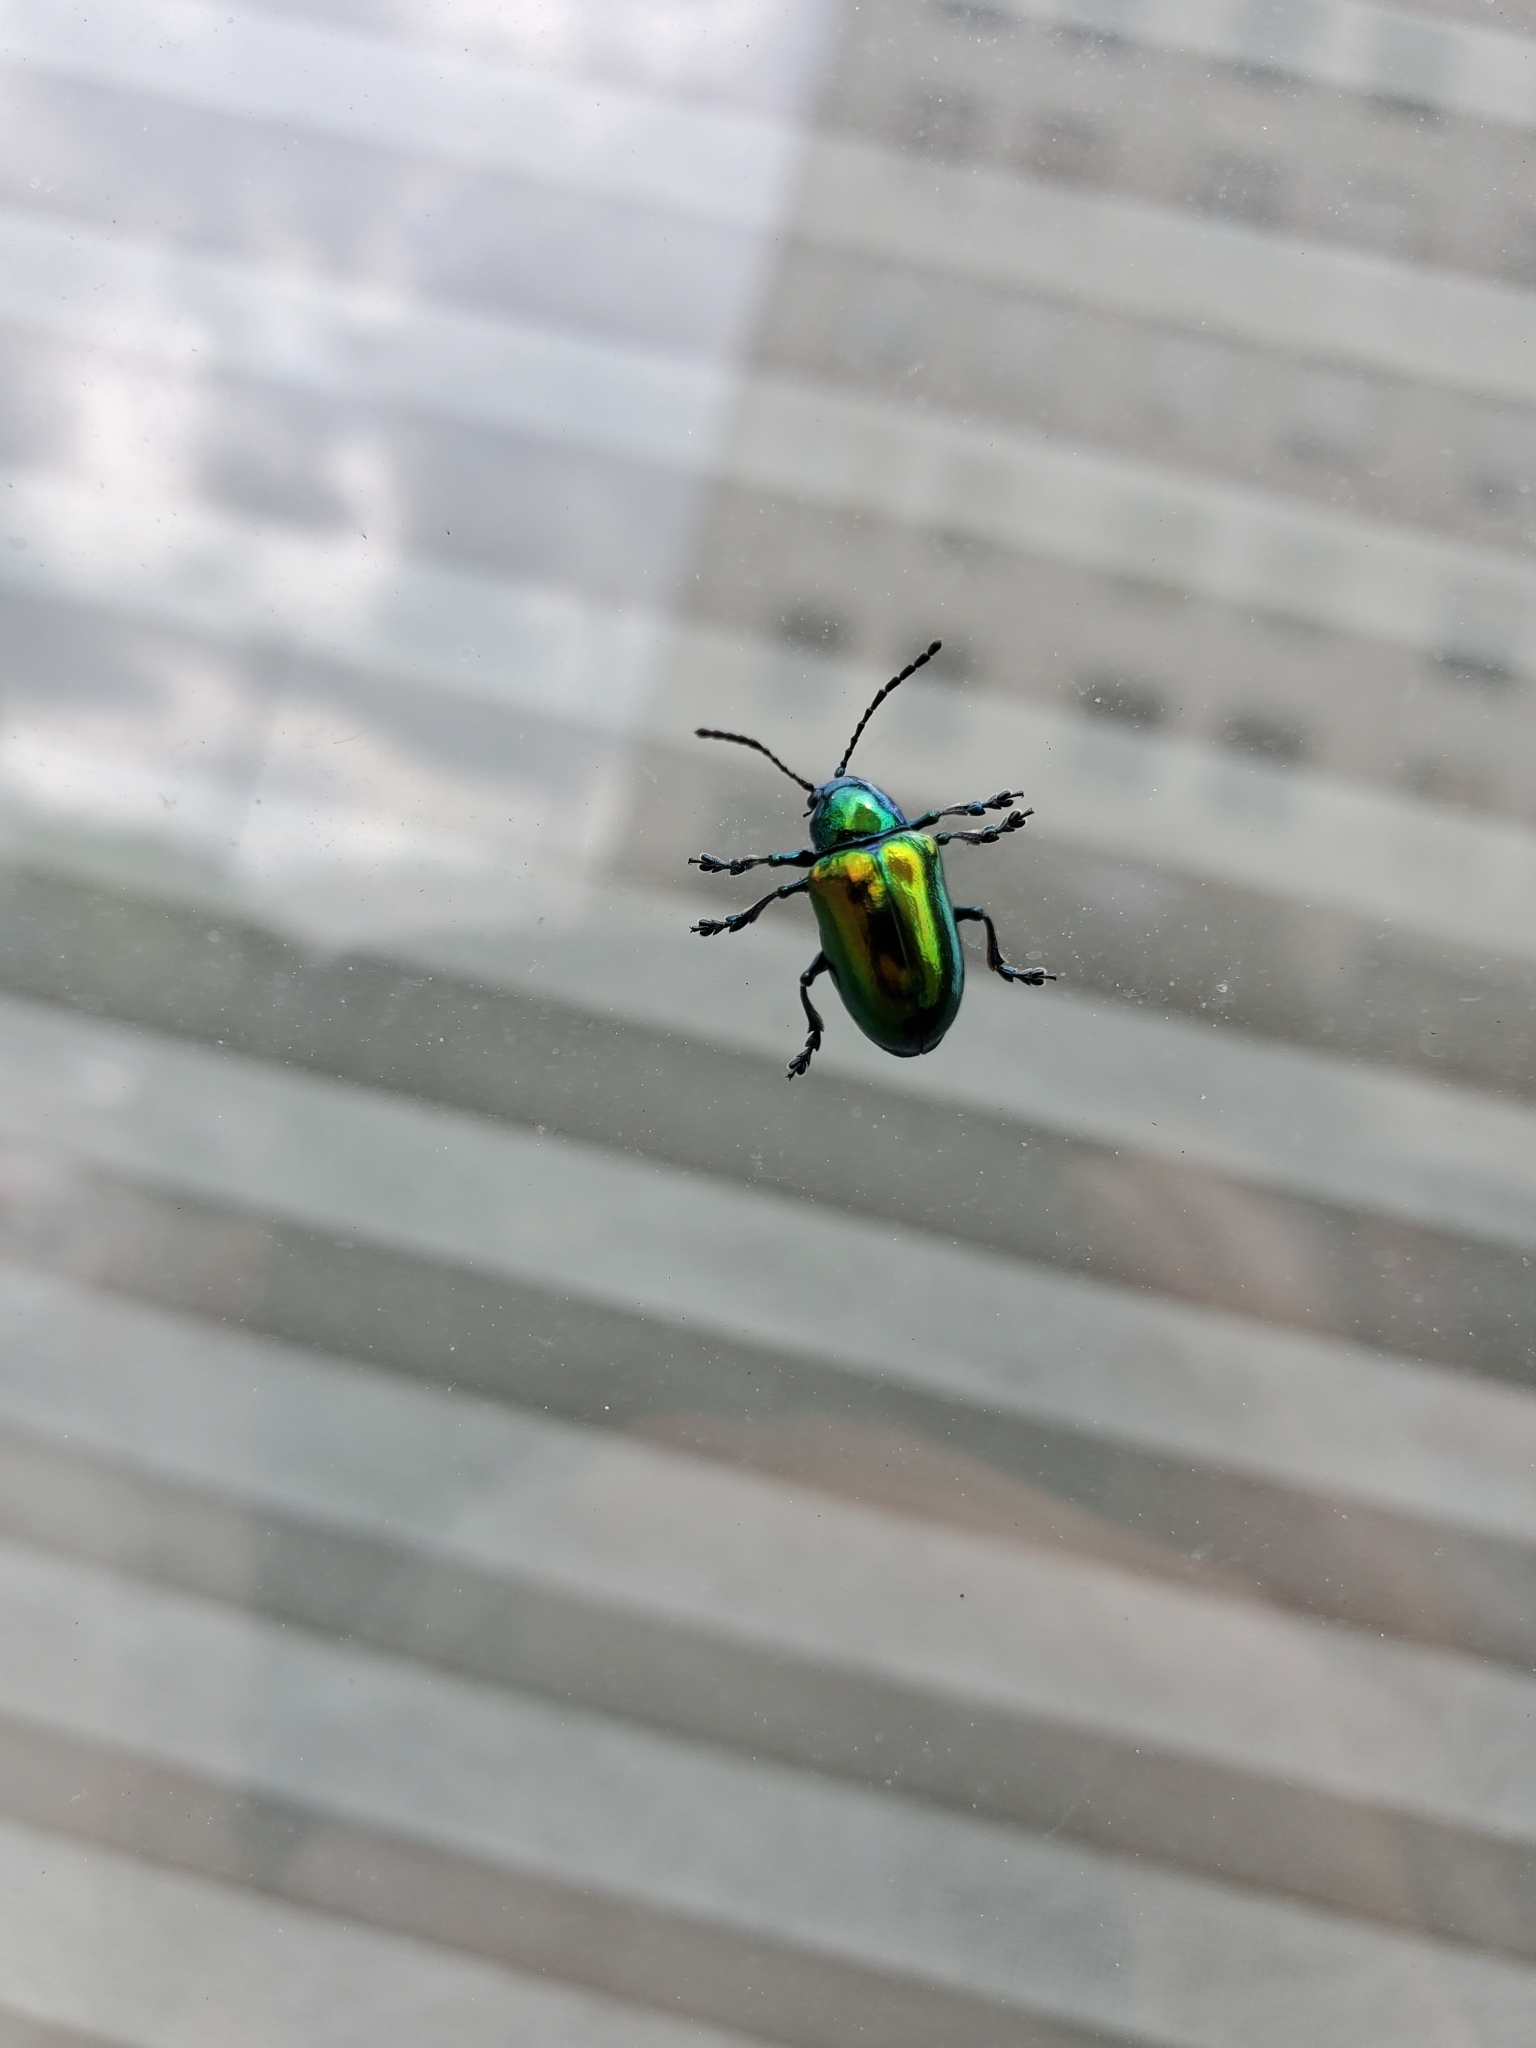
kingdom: Animalia
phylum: Arthropoda
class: Insecta
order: Coleoptera
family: Chrysomelidae
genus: Chrysochus
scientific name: Chrysochus auratus
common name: Dogbane leaf beetle
